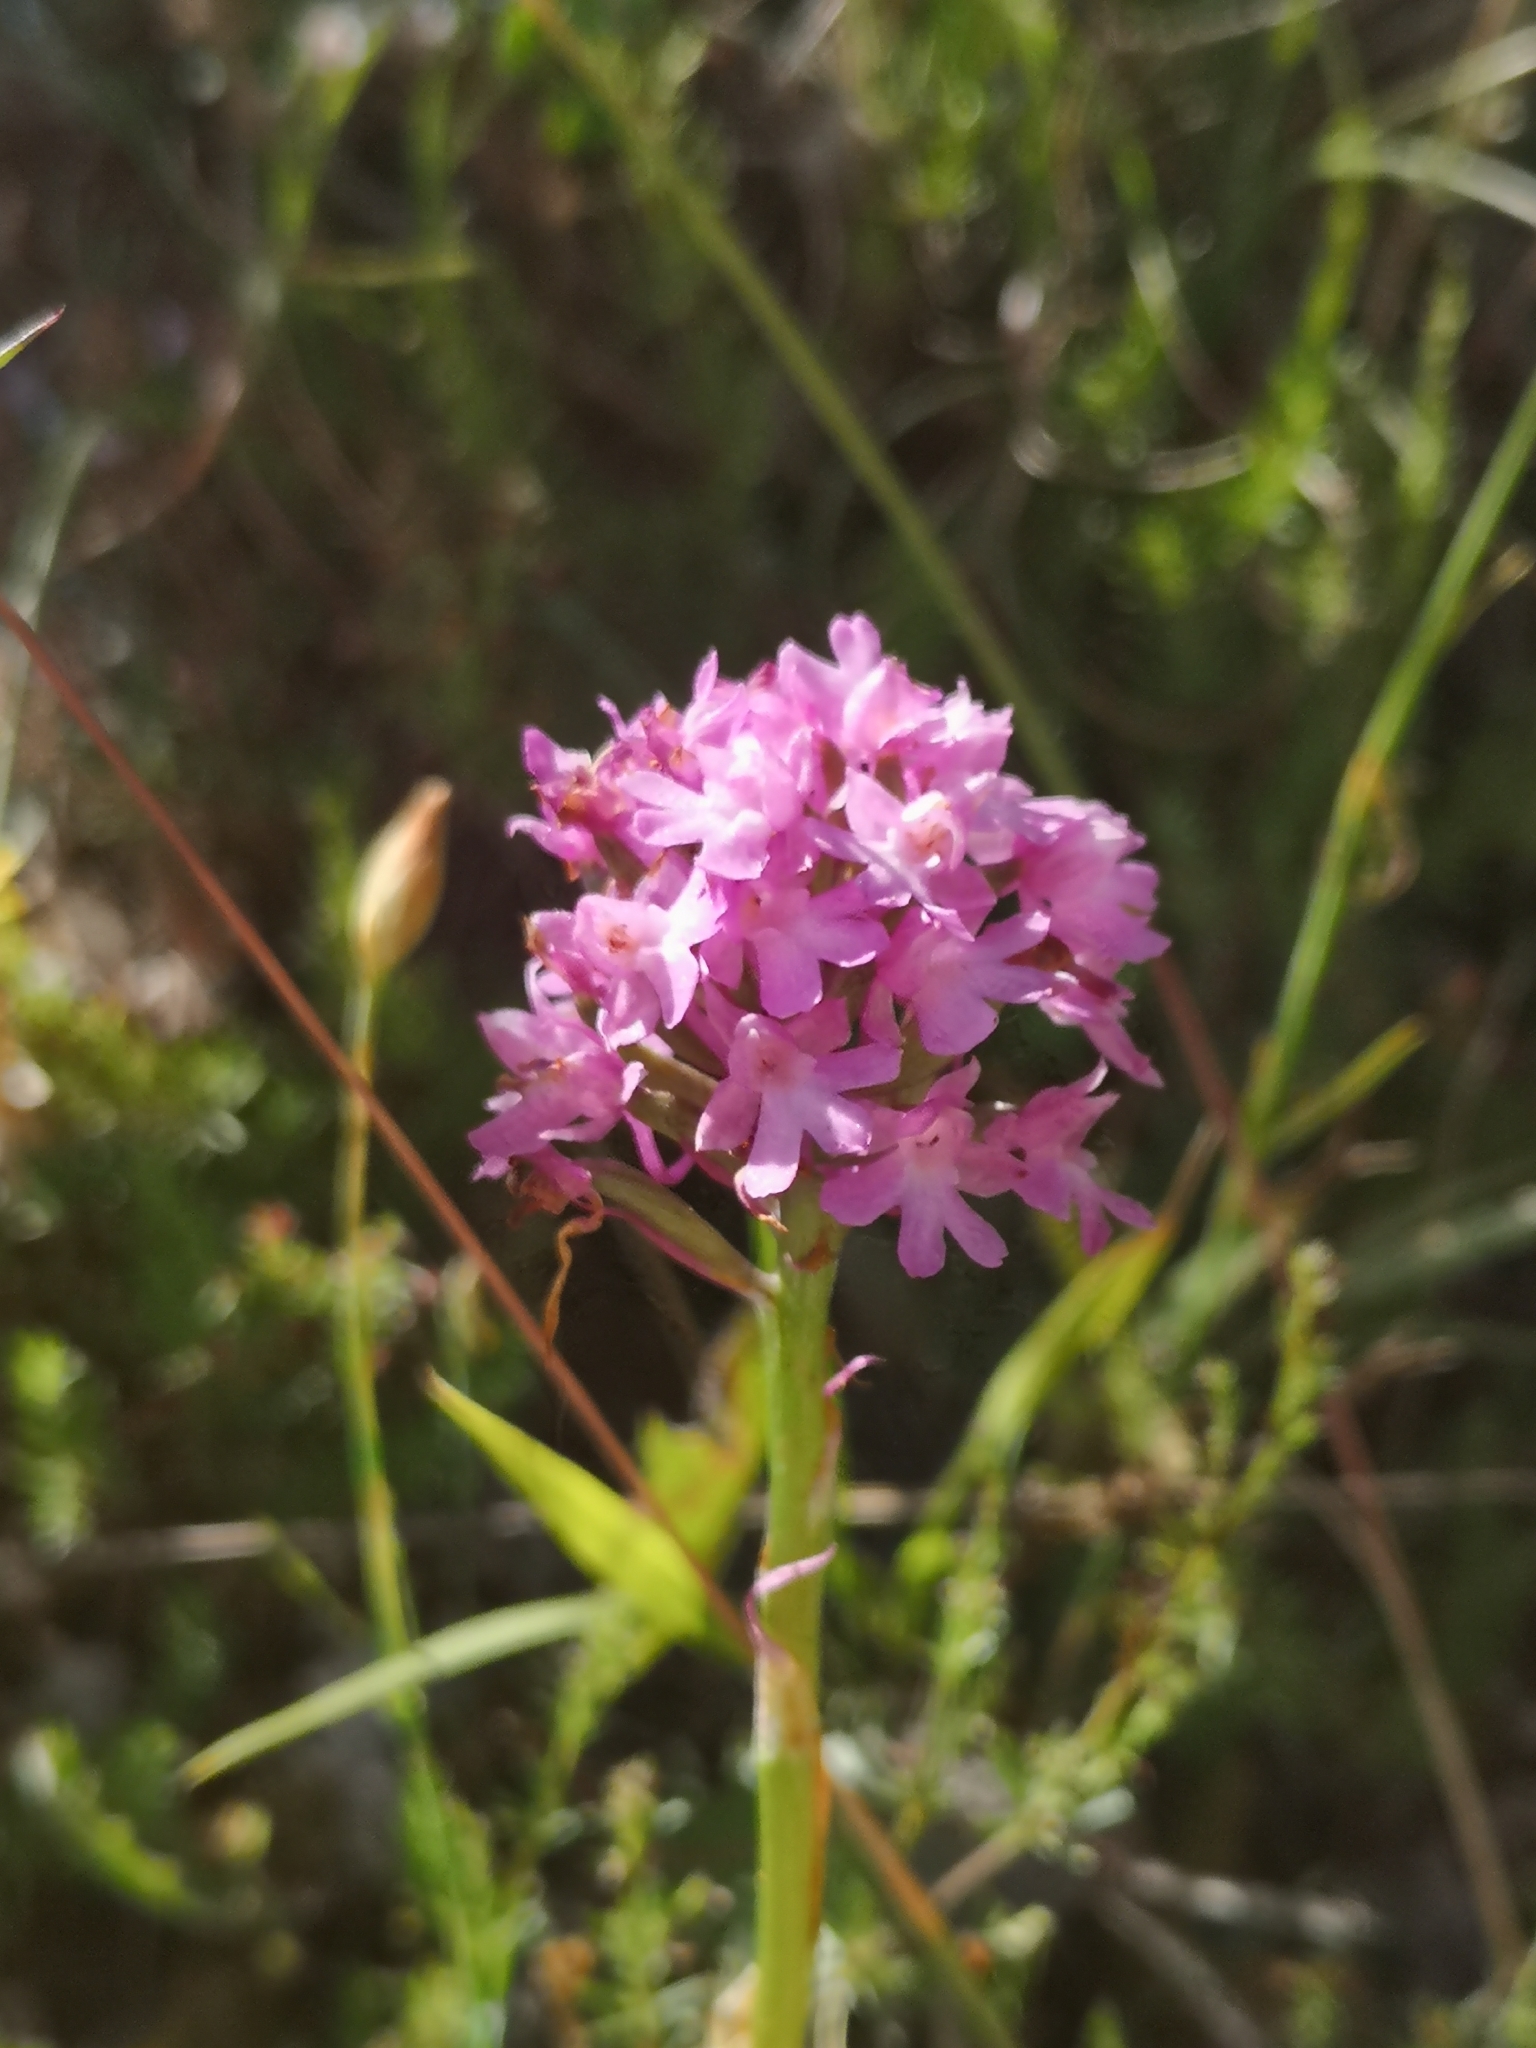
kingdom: Plantae
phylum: Tracheophyta
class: Liliopsida
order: Asparagales
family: Orchidaceae
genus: Anacamptis
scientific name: Anacamptis pyramidalis
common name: Pyramidal orchid
